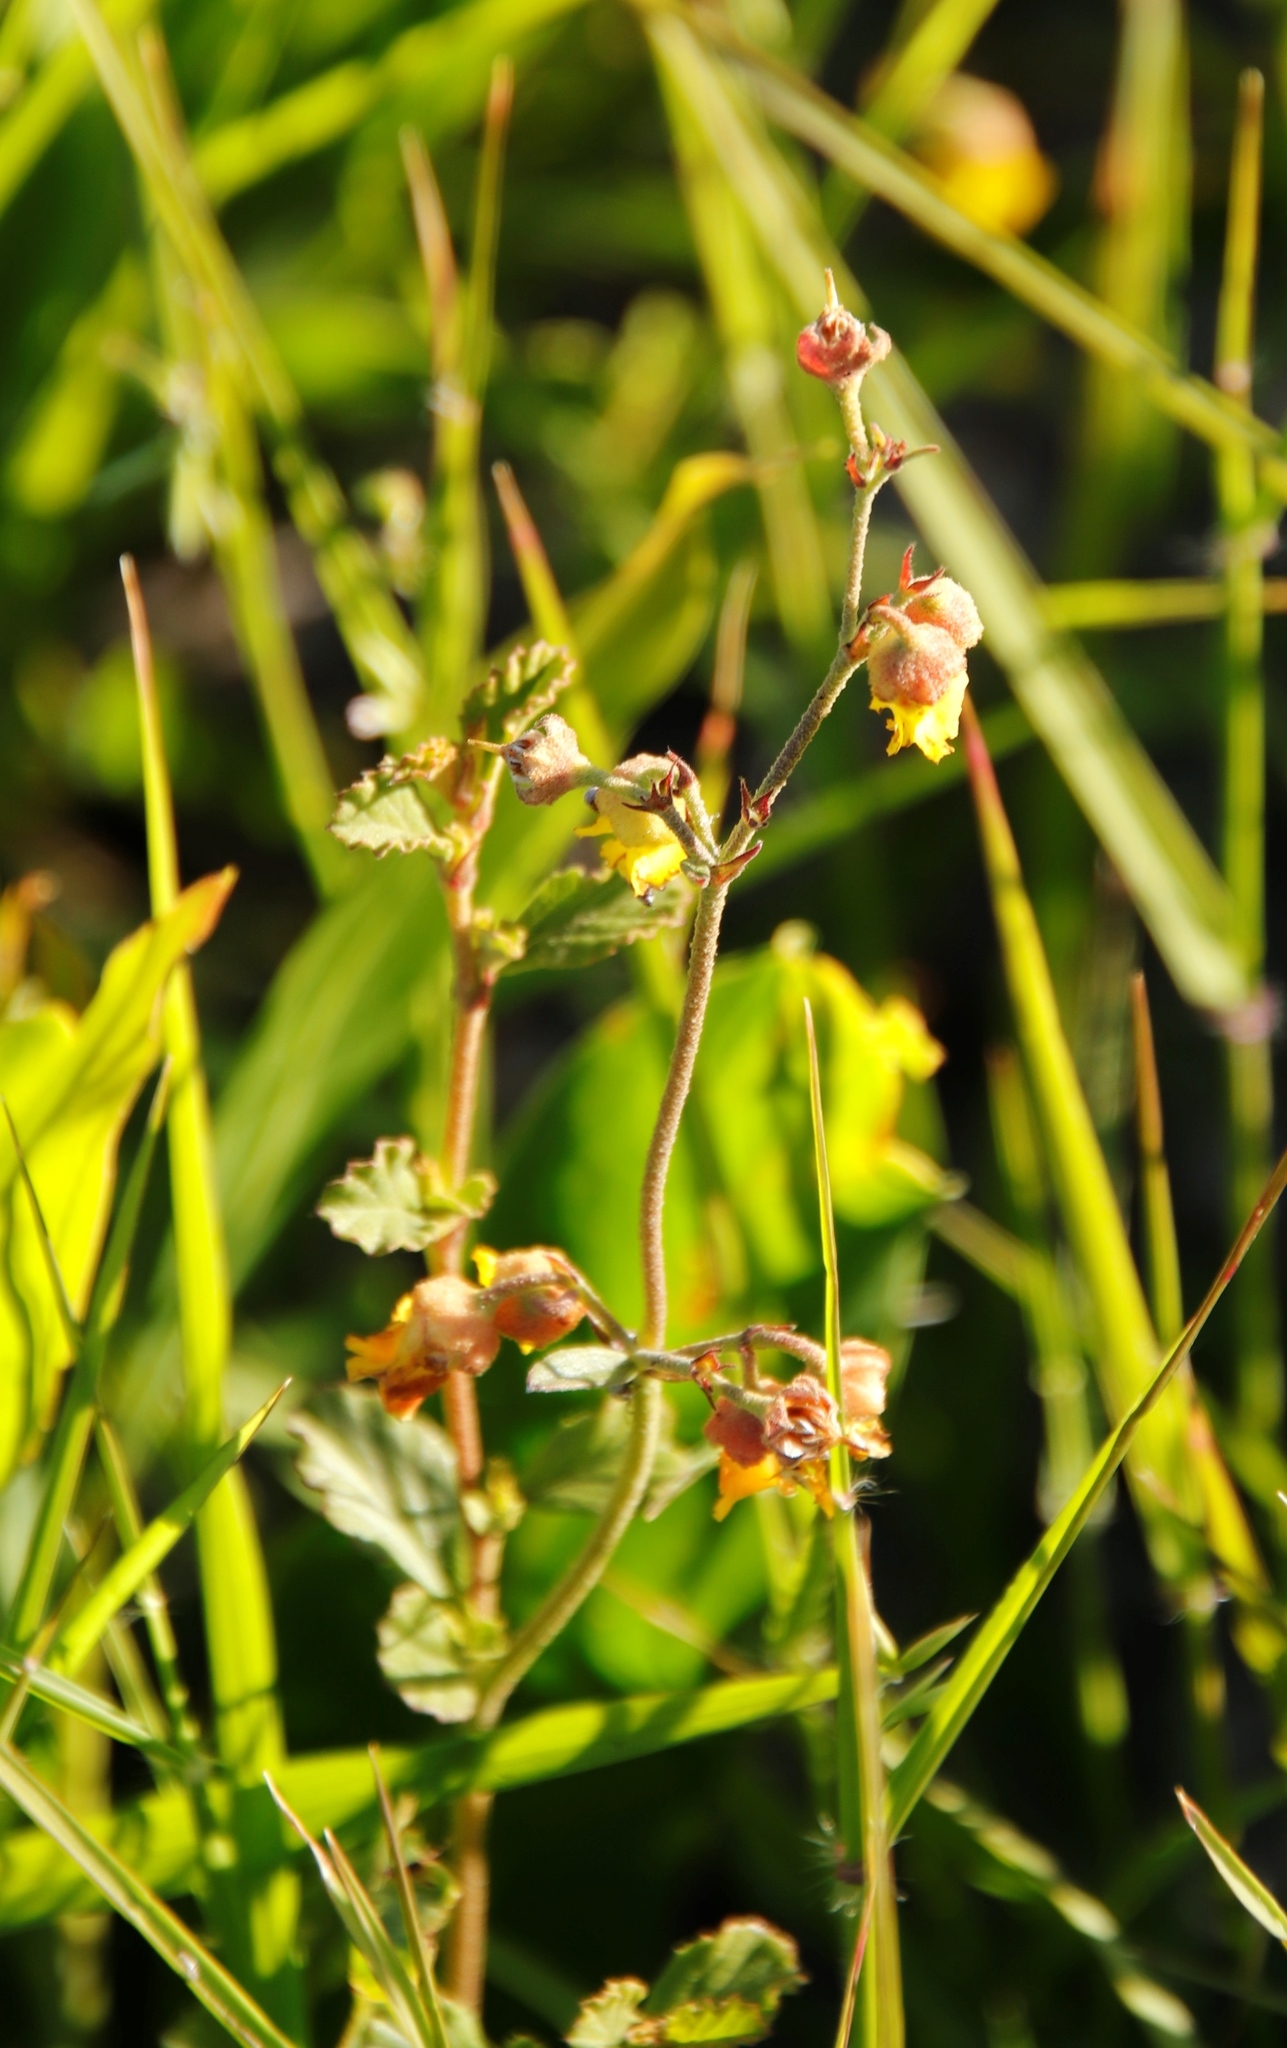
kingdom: Plantae
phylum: Tracheophyta
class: Magnoliopsida
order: Malvales
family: Malvaceae
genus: Hermannia
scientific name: Hermannia multiflora
